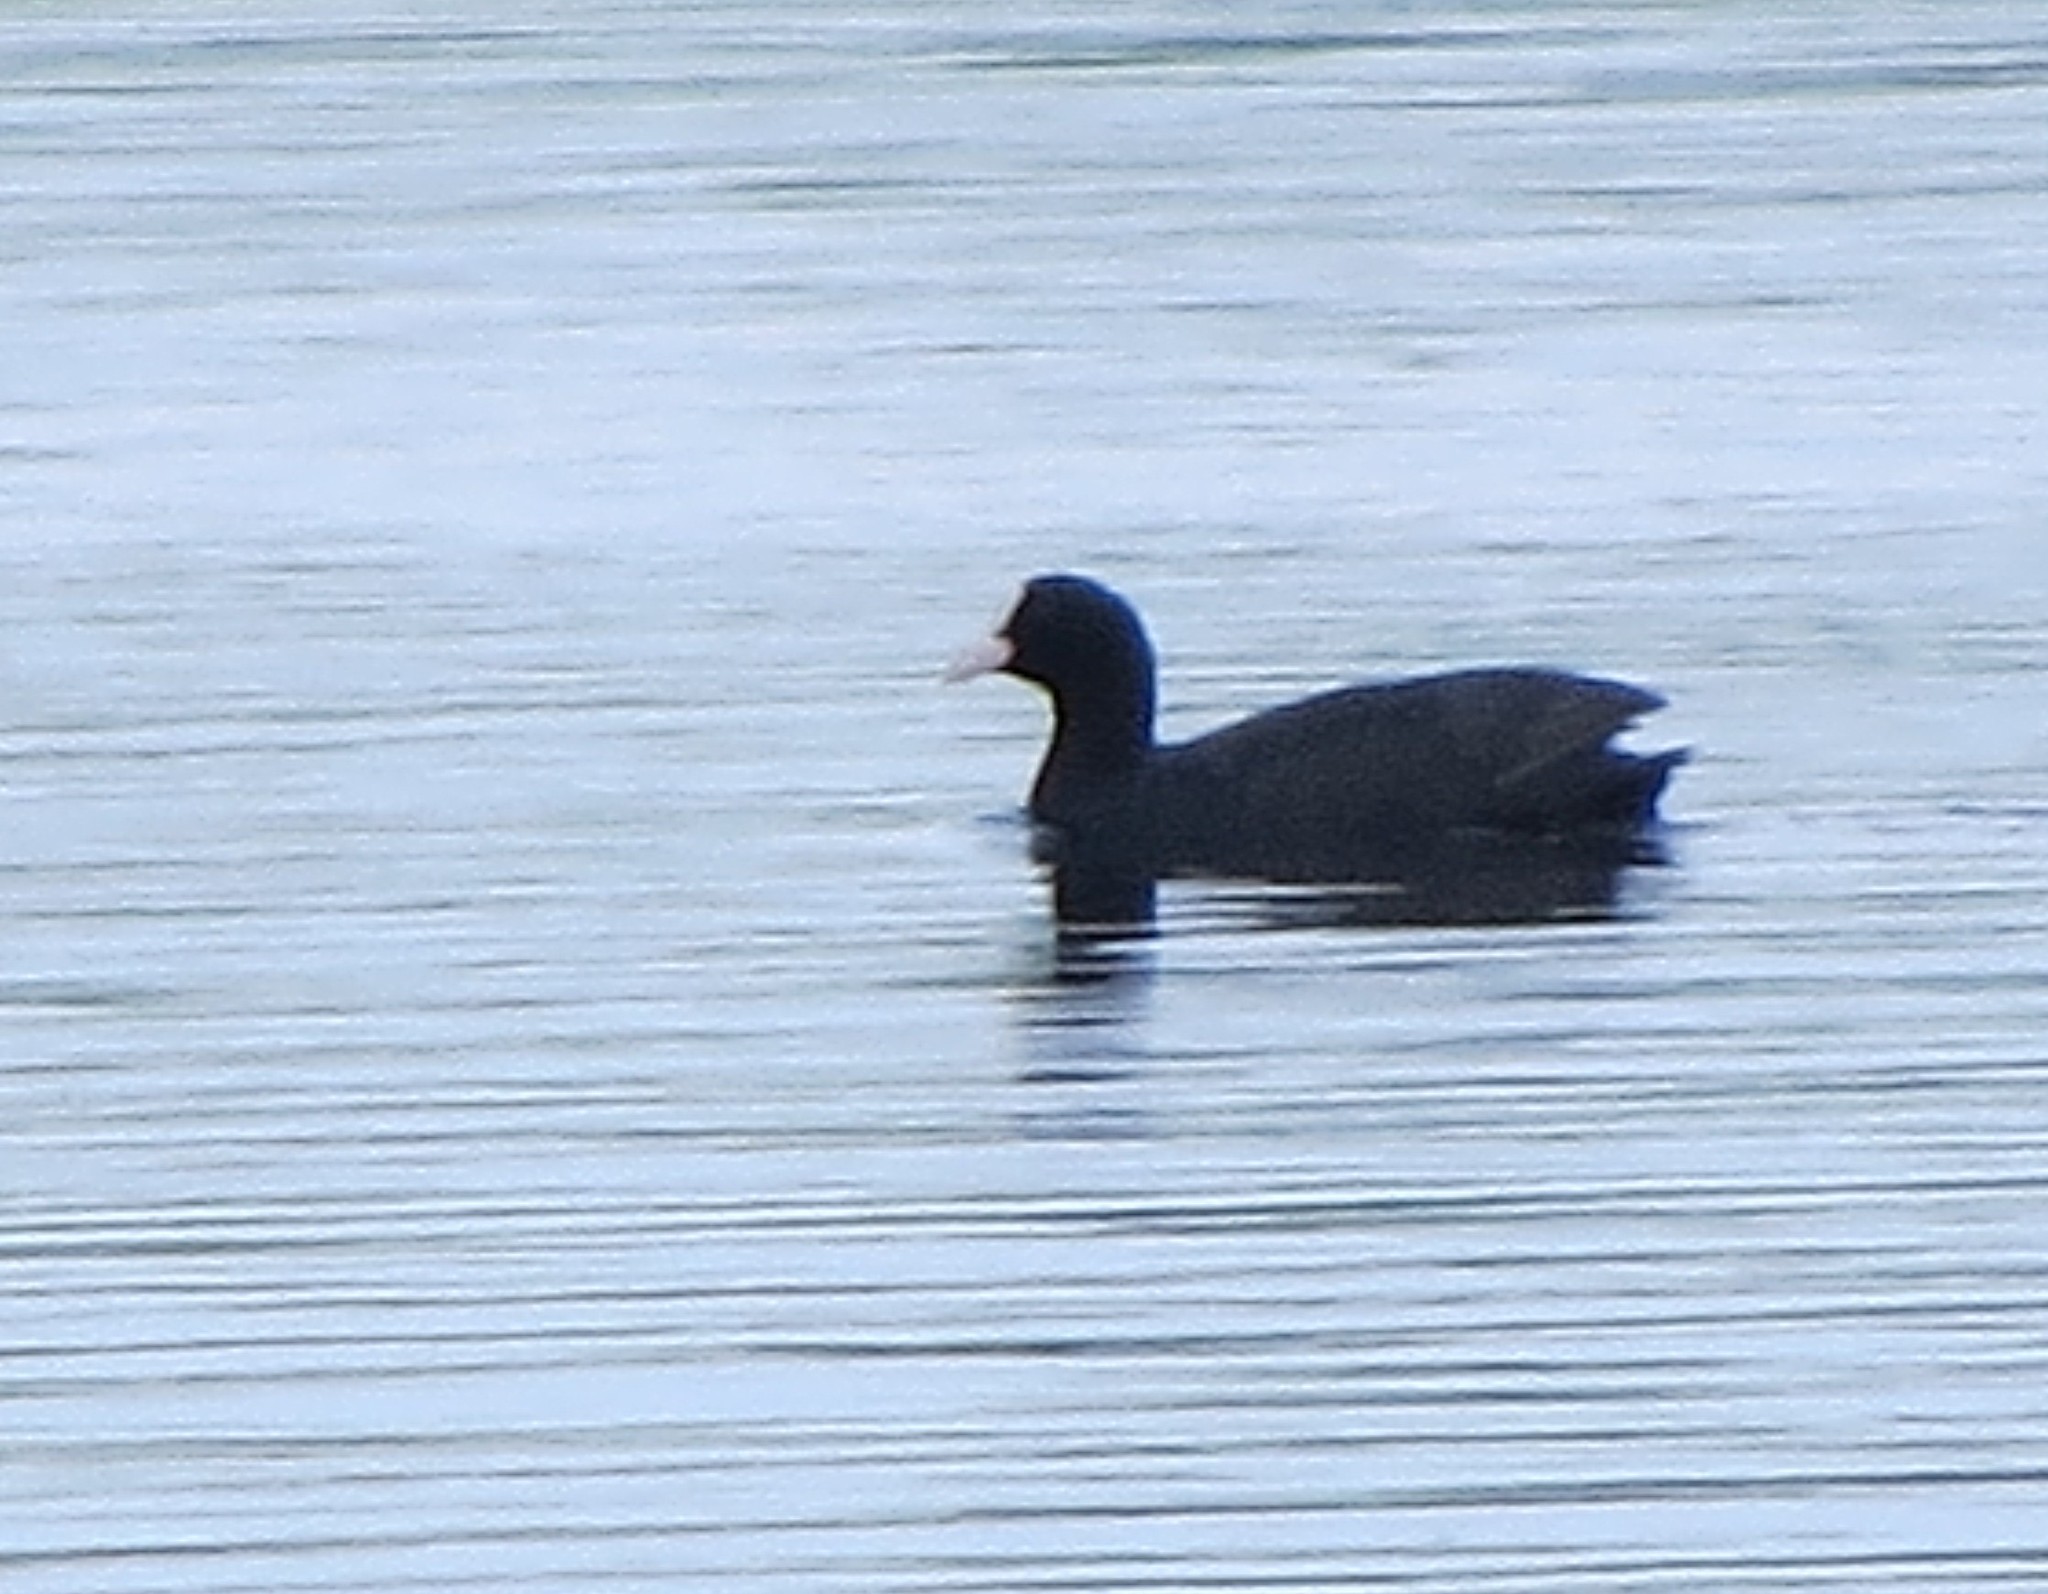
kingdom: Animalia
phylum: Chordata
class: Aves
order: Gruiformes
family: Rallidae
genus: Fulica
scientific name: Fulica atra
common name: Eurasian coot
